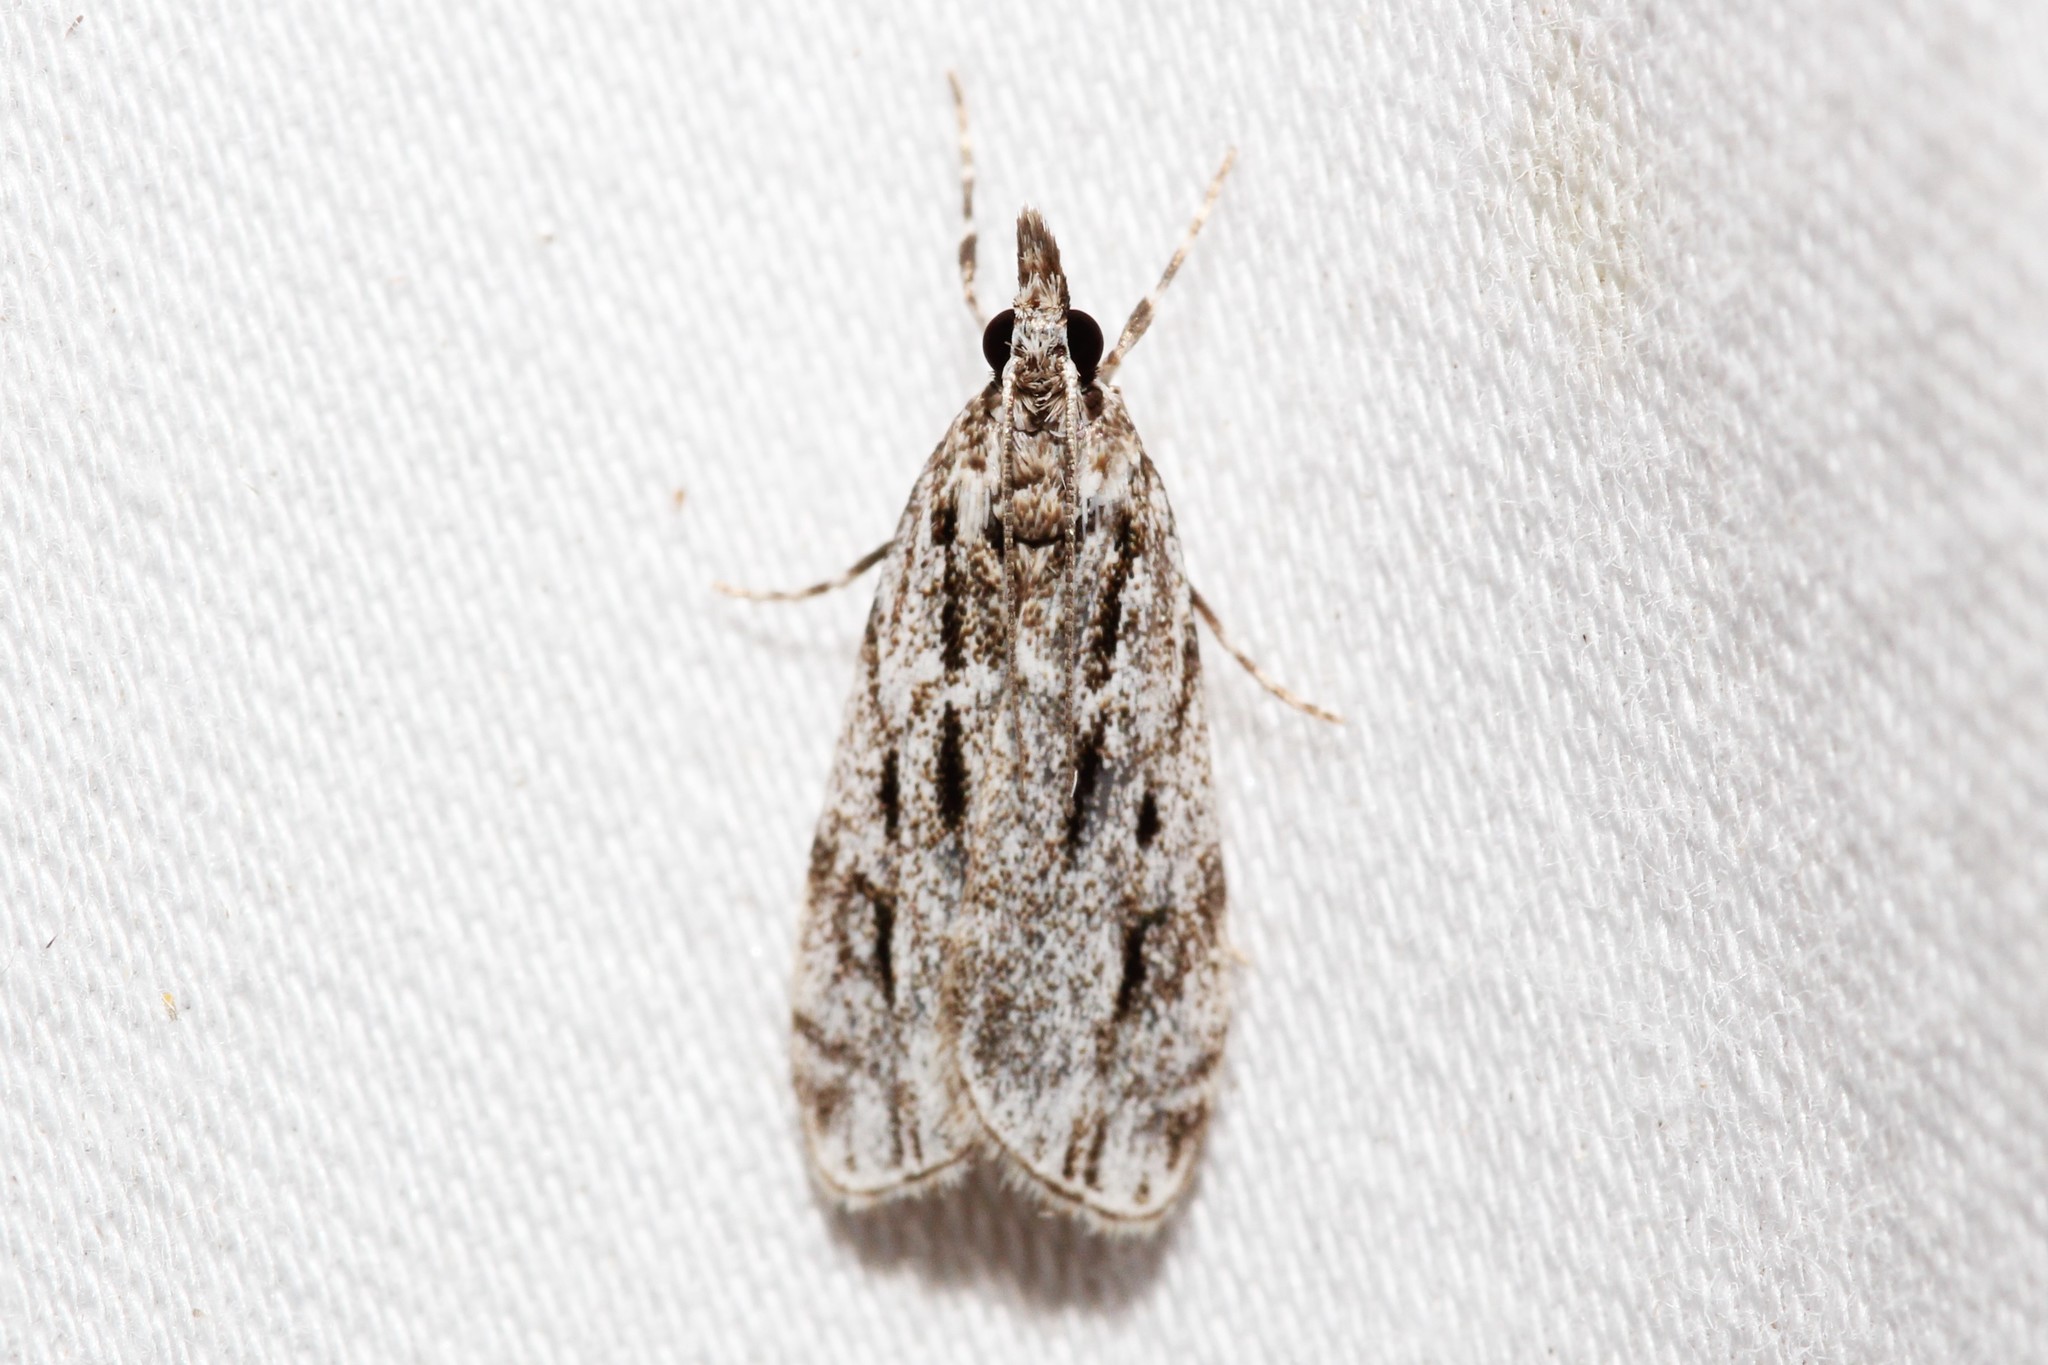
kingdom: Animalia
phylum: Arthropoda
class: Insecta
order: Lepidoptera
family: Crambidae
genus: Eudonia
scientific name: Eudonia strigalis
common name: Striped eudonia moth
